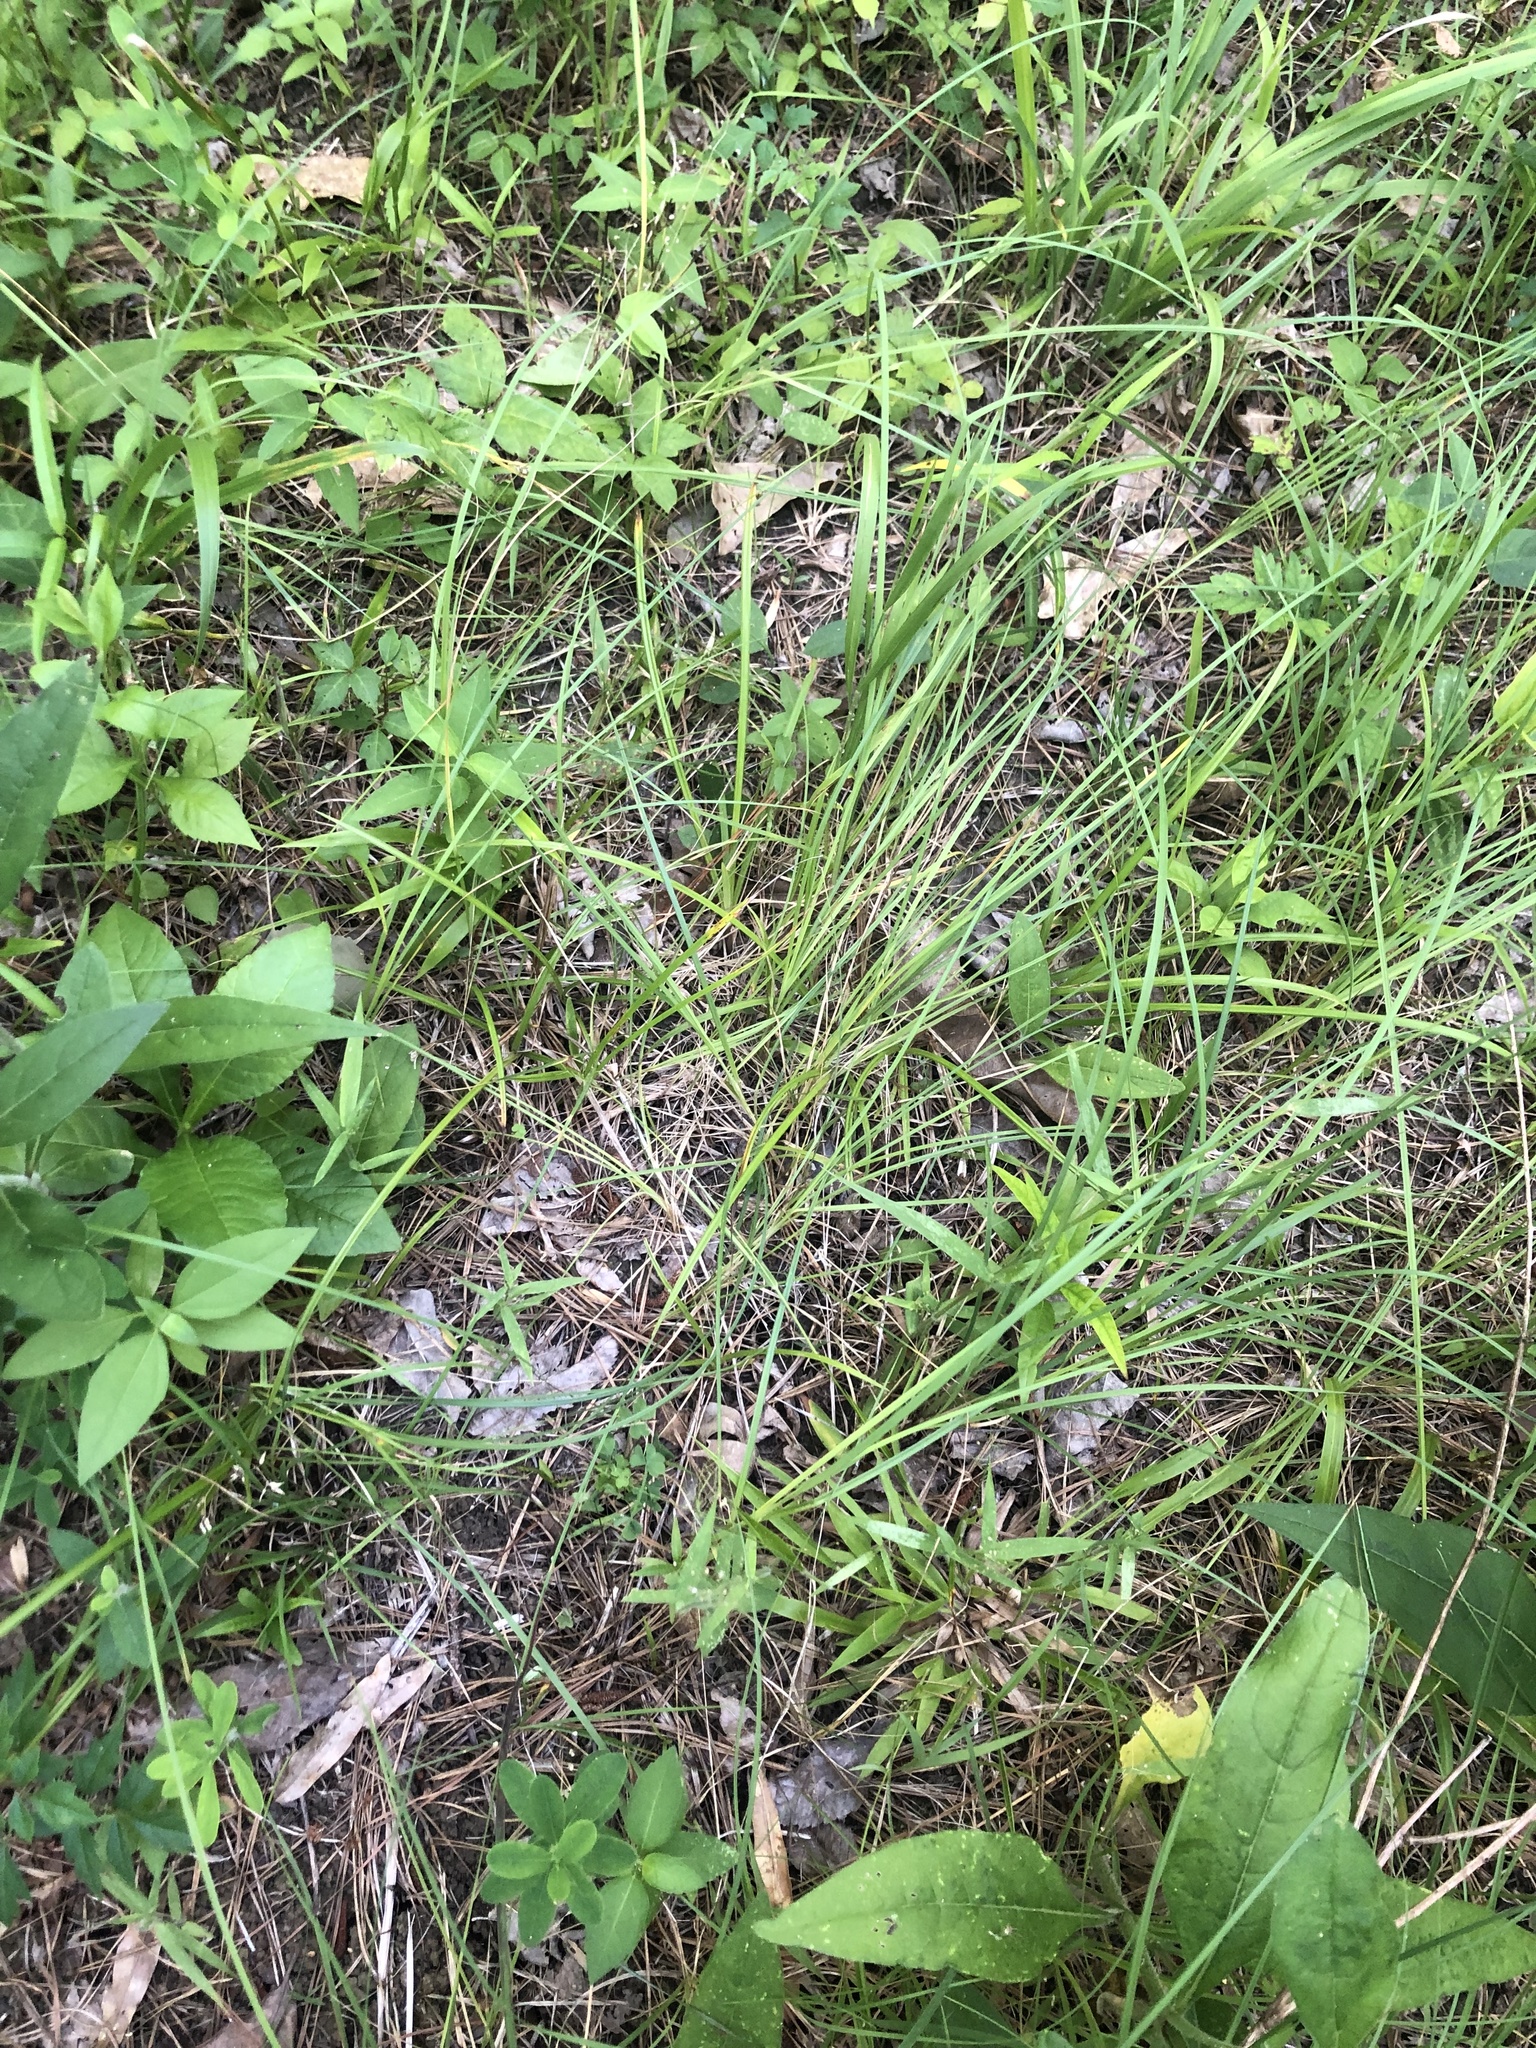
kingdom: Plantae
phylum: Tracheophyta
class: Liliopsida
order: Poales
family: Cyperaceae
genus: Carex
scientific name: Carex meadii
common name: Mead's sedge
